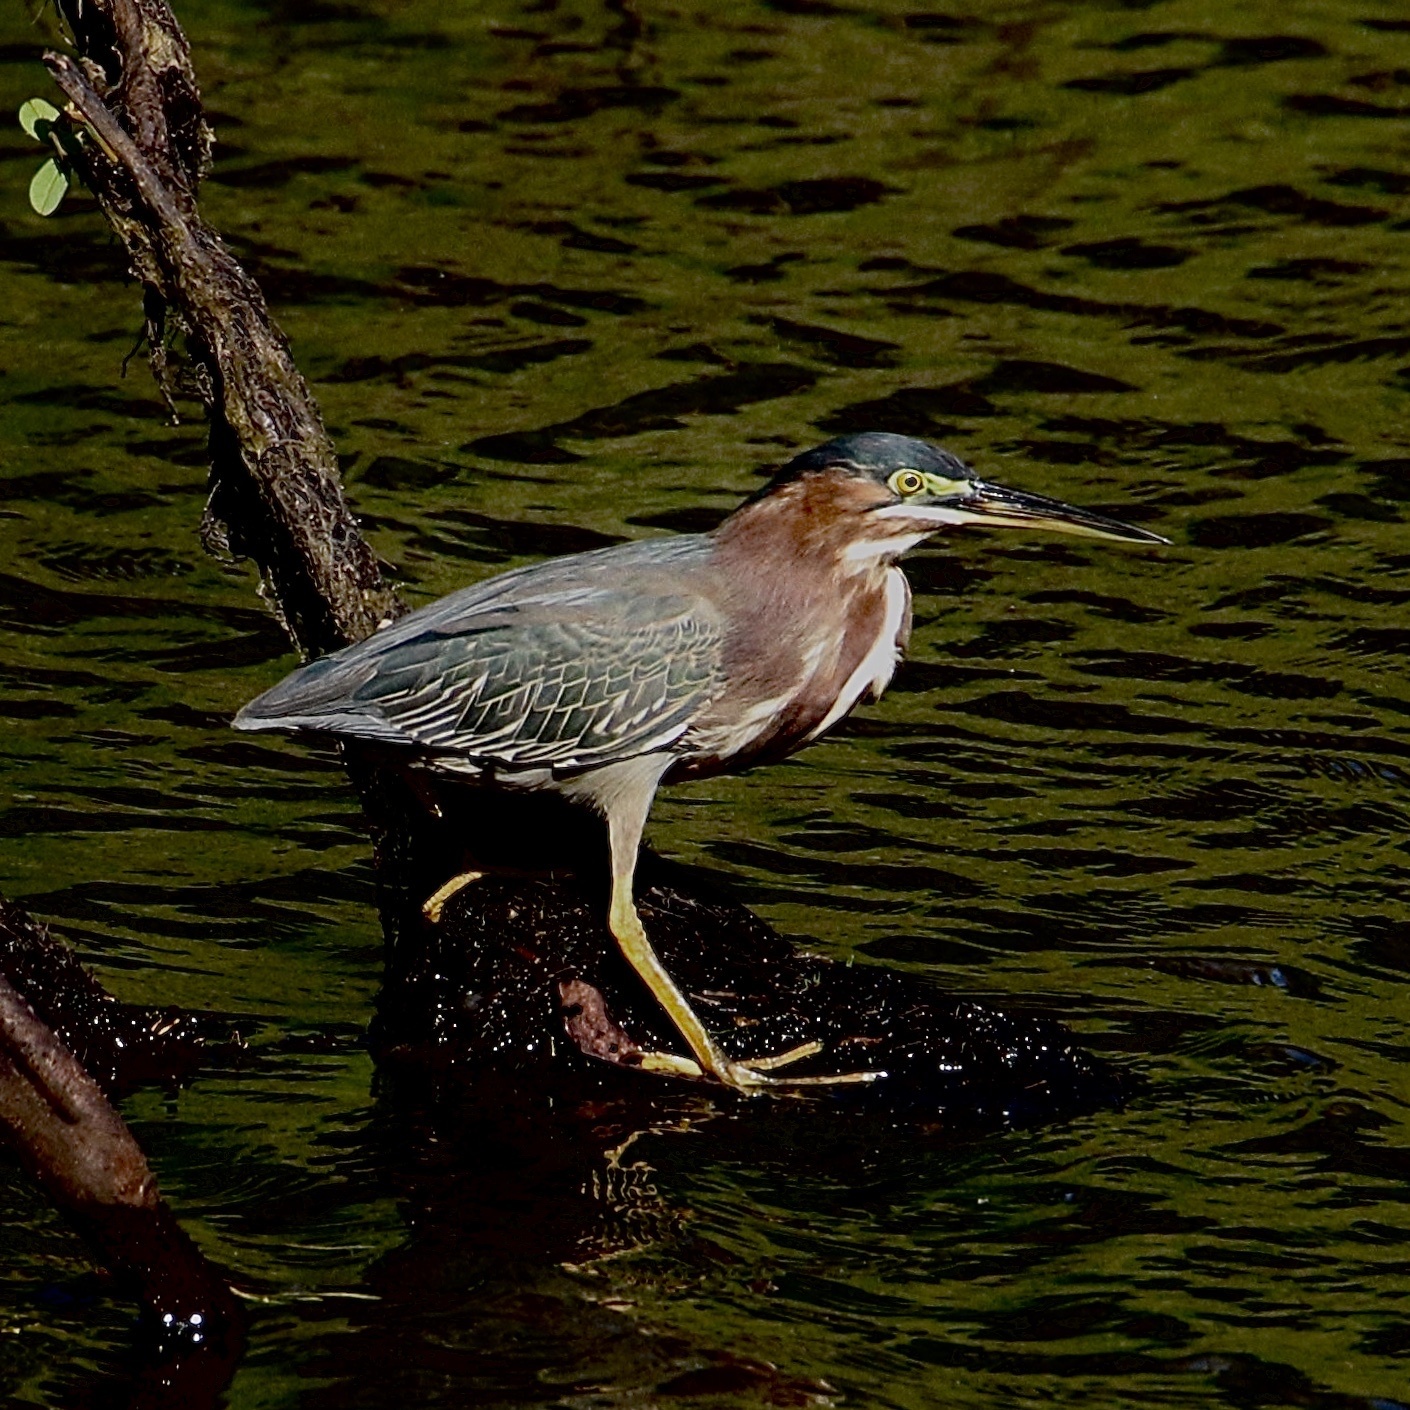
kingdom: Animalia
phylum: Chordata
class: Aves
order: Pelecaniformes
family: Ardeidae
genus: Butorides
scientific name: Butorides virescens
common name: Green heron
